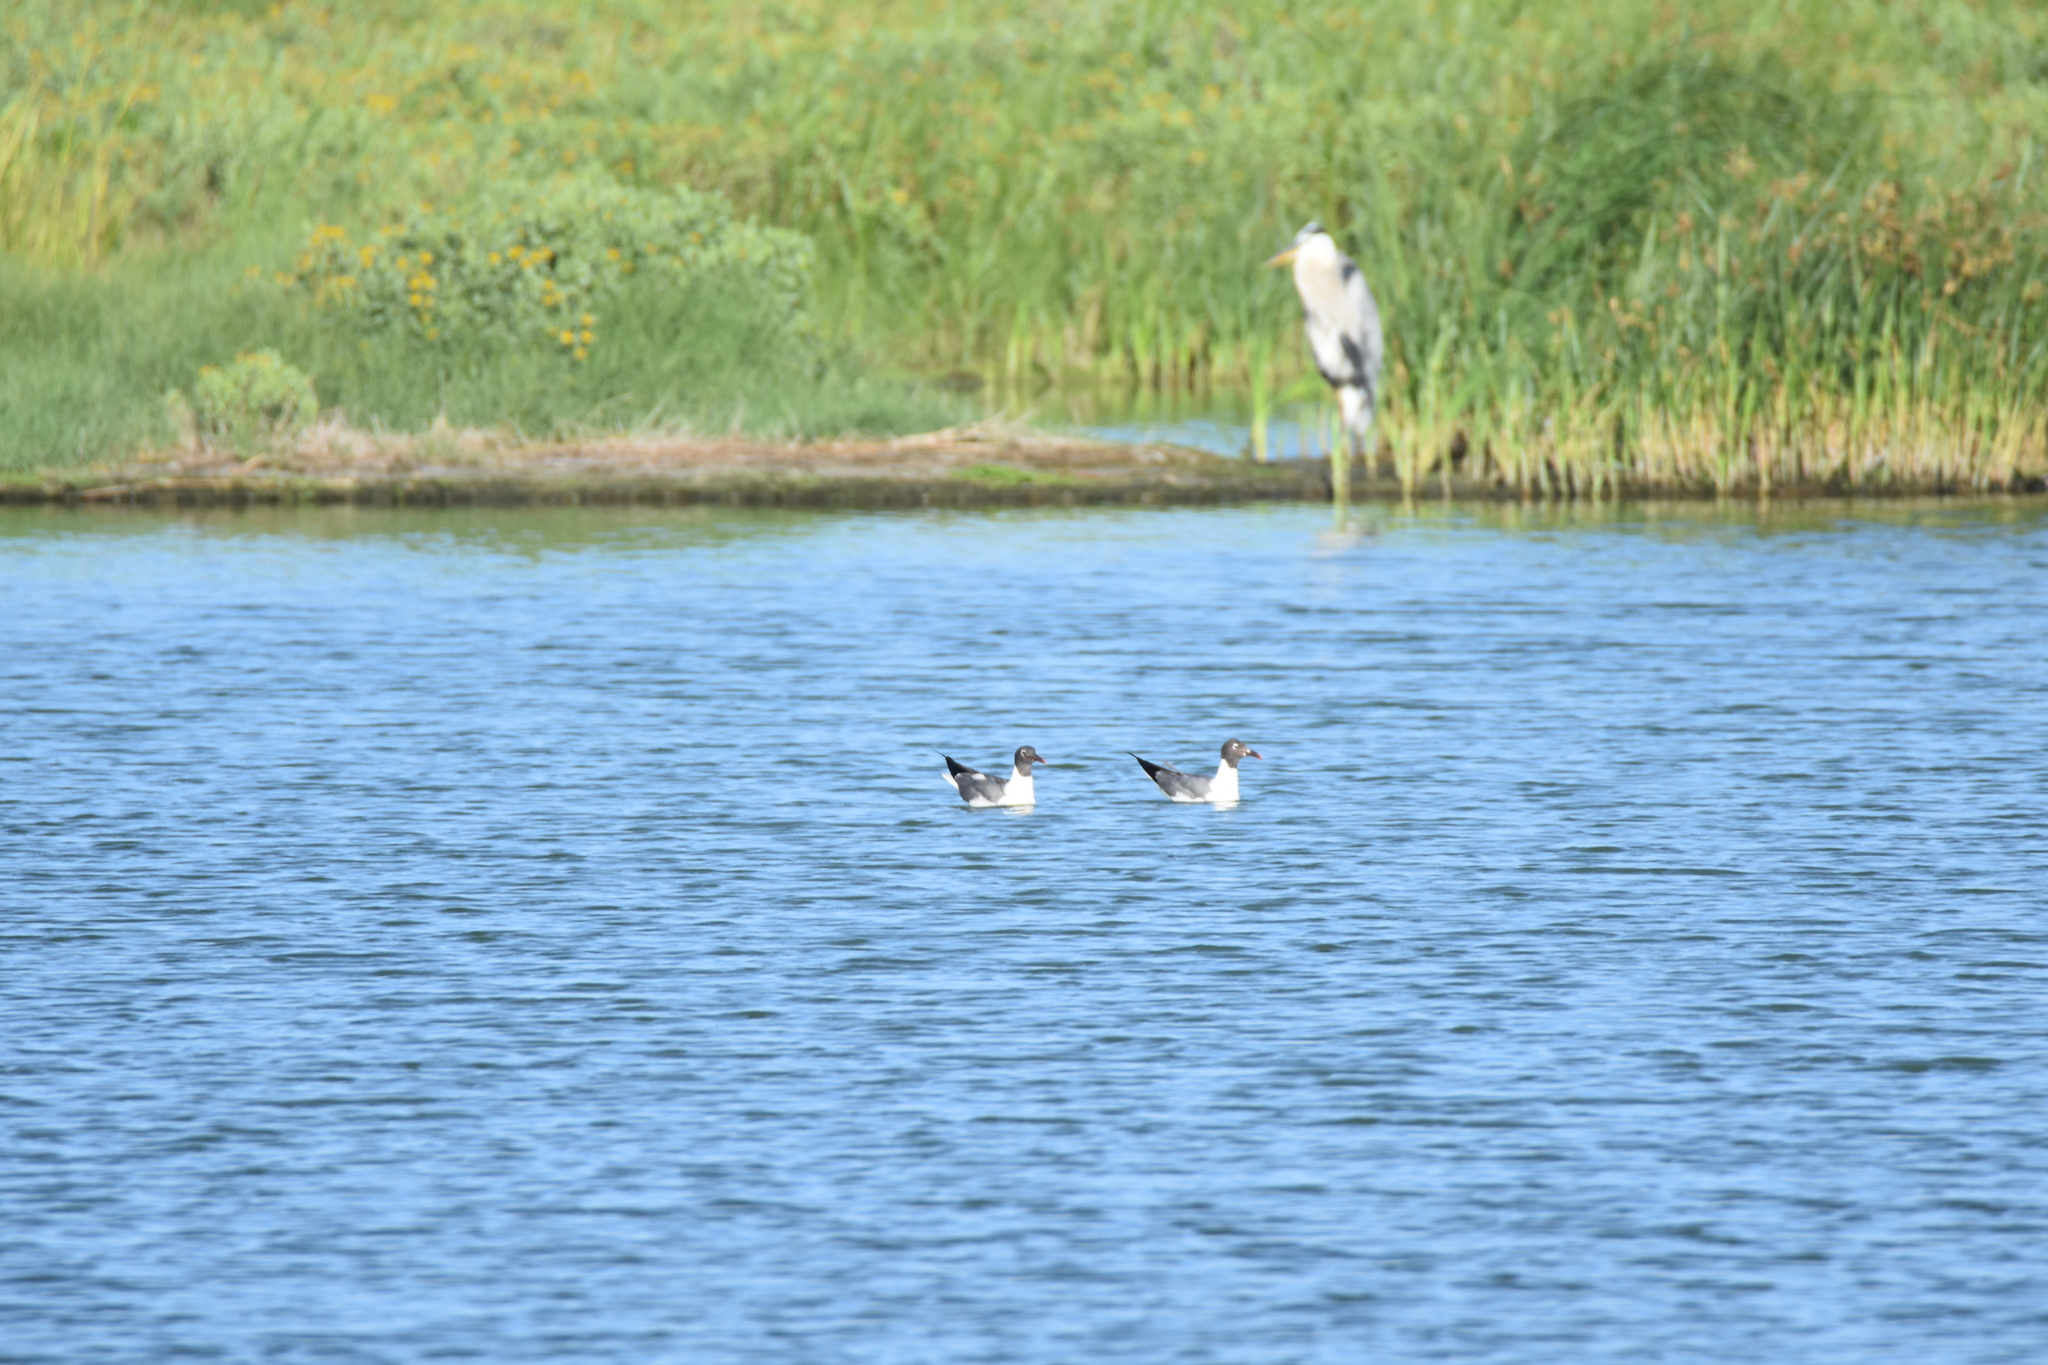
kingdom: Animalia
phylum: Chordata
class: Aves
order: Charadriiformes
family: Laridae
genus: Leucophaeus
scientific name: Leucophaeus atricilla
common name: Laughing gull
